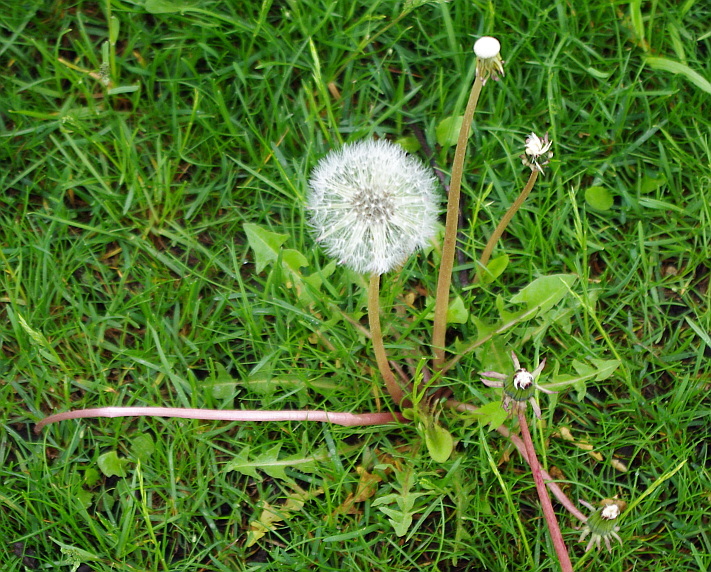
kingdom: Plantae
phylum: Tracheophyta
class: Magnoliopsida
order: Asterales
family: Asteraceae
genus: Taraxacum
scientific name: Taraxacum officinale
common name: Common dandelion
